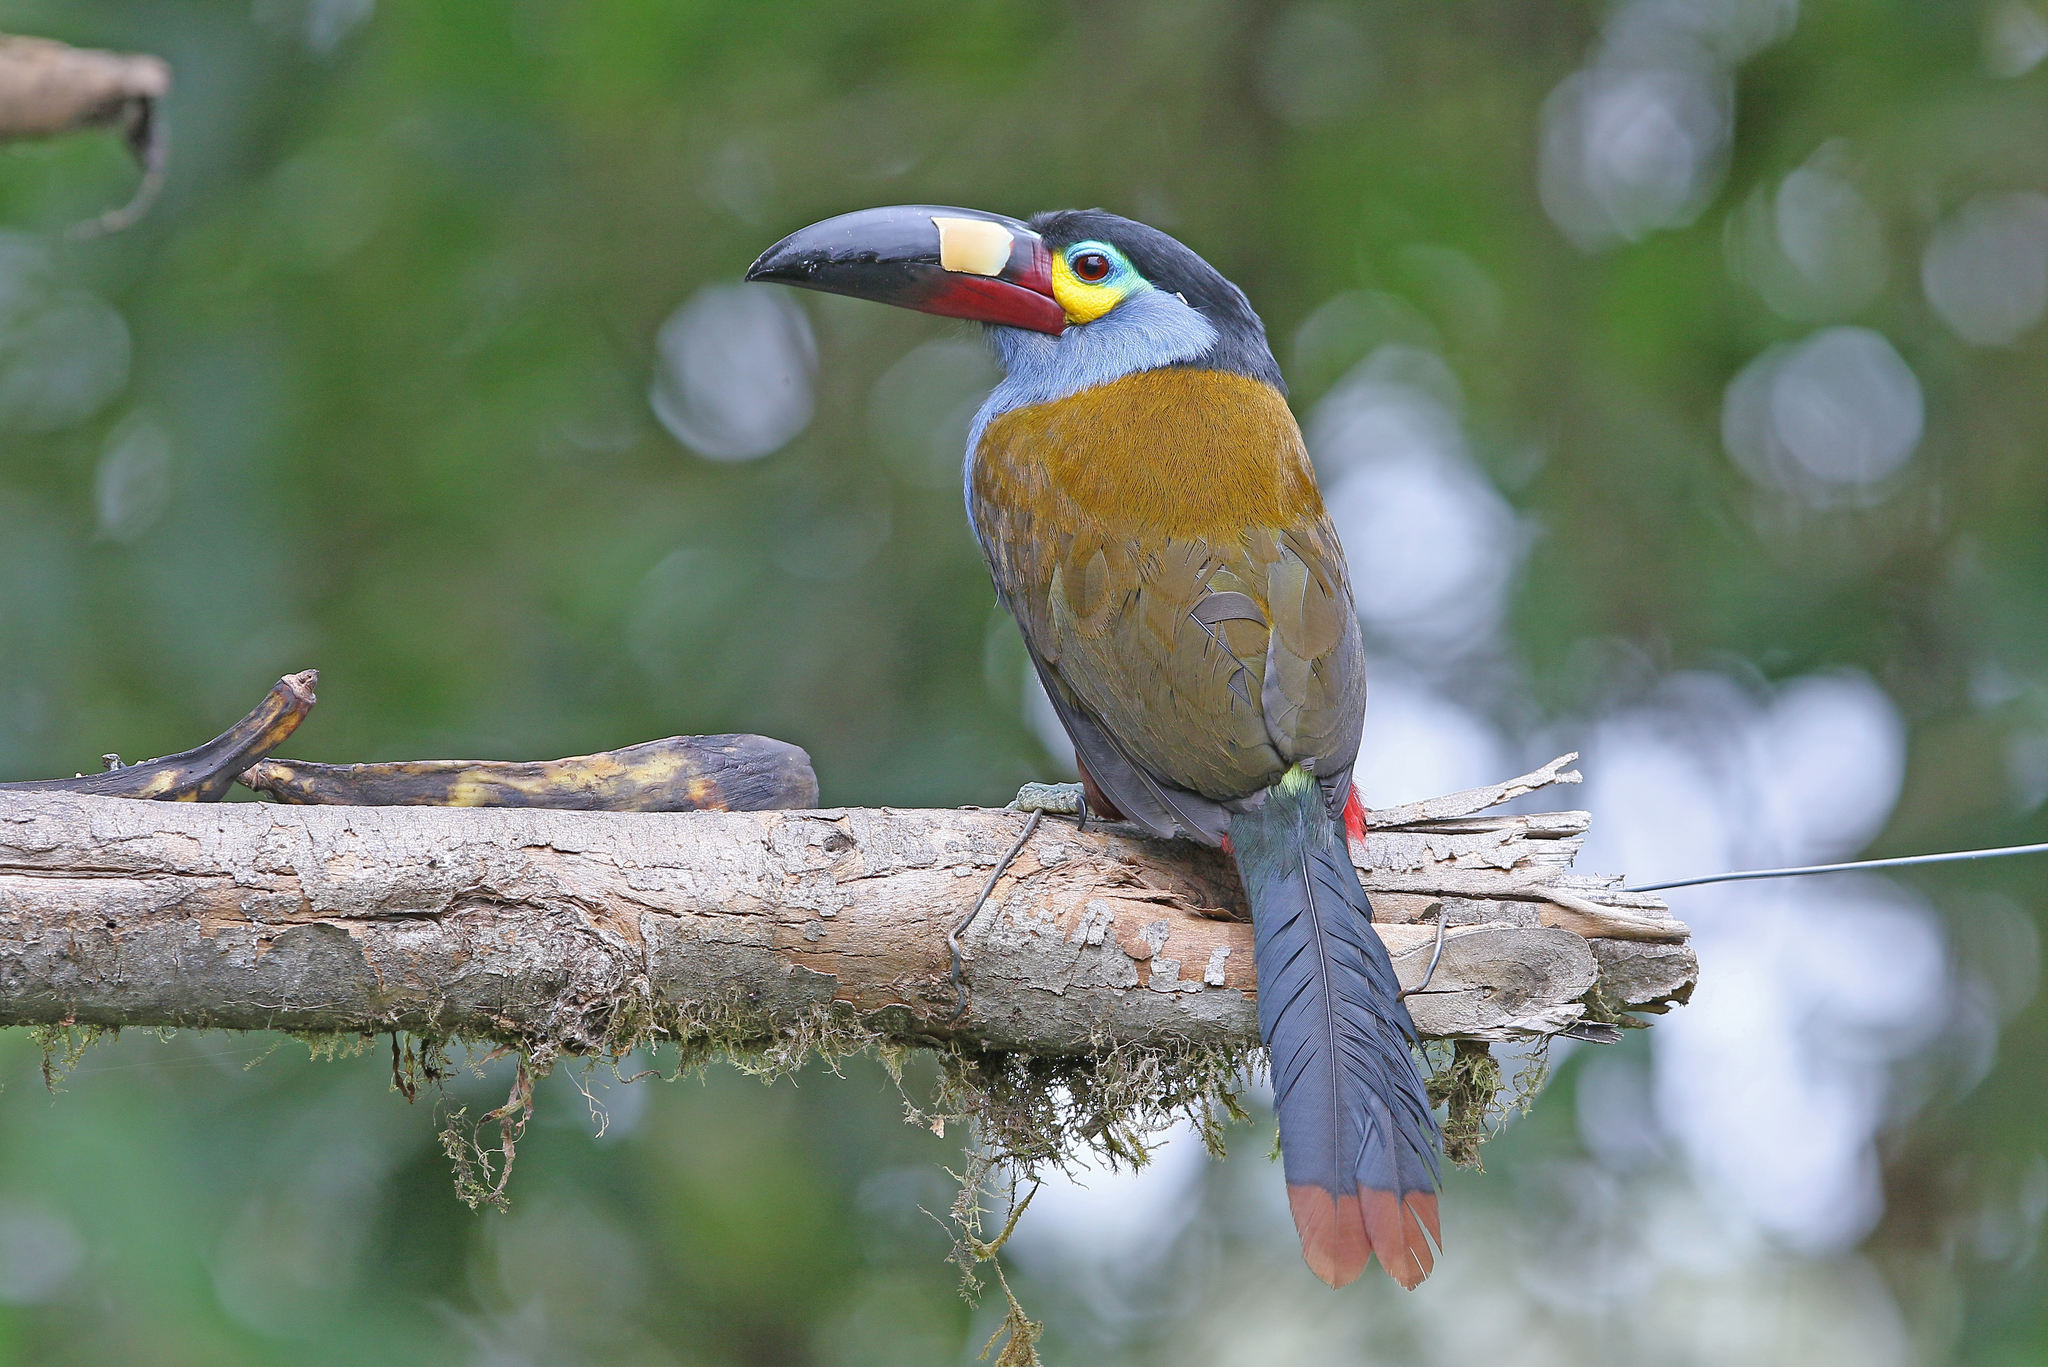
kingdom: Animalia
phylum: Chordata
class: Aves
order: Piciformes
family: Ramphastidae
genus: Andigena
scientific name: Andigena laminirostris
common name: Plate-billed mountain toucan
